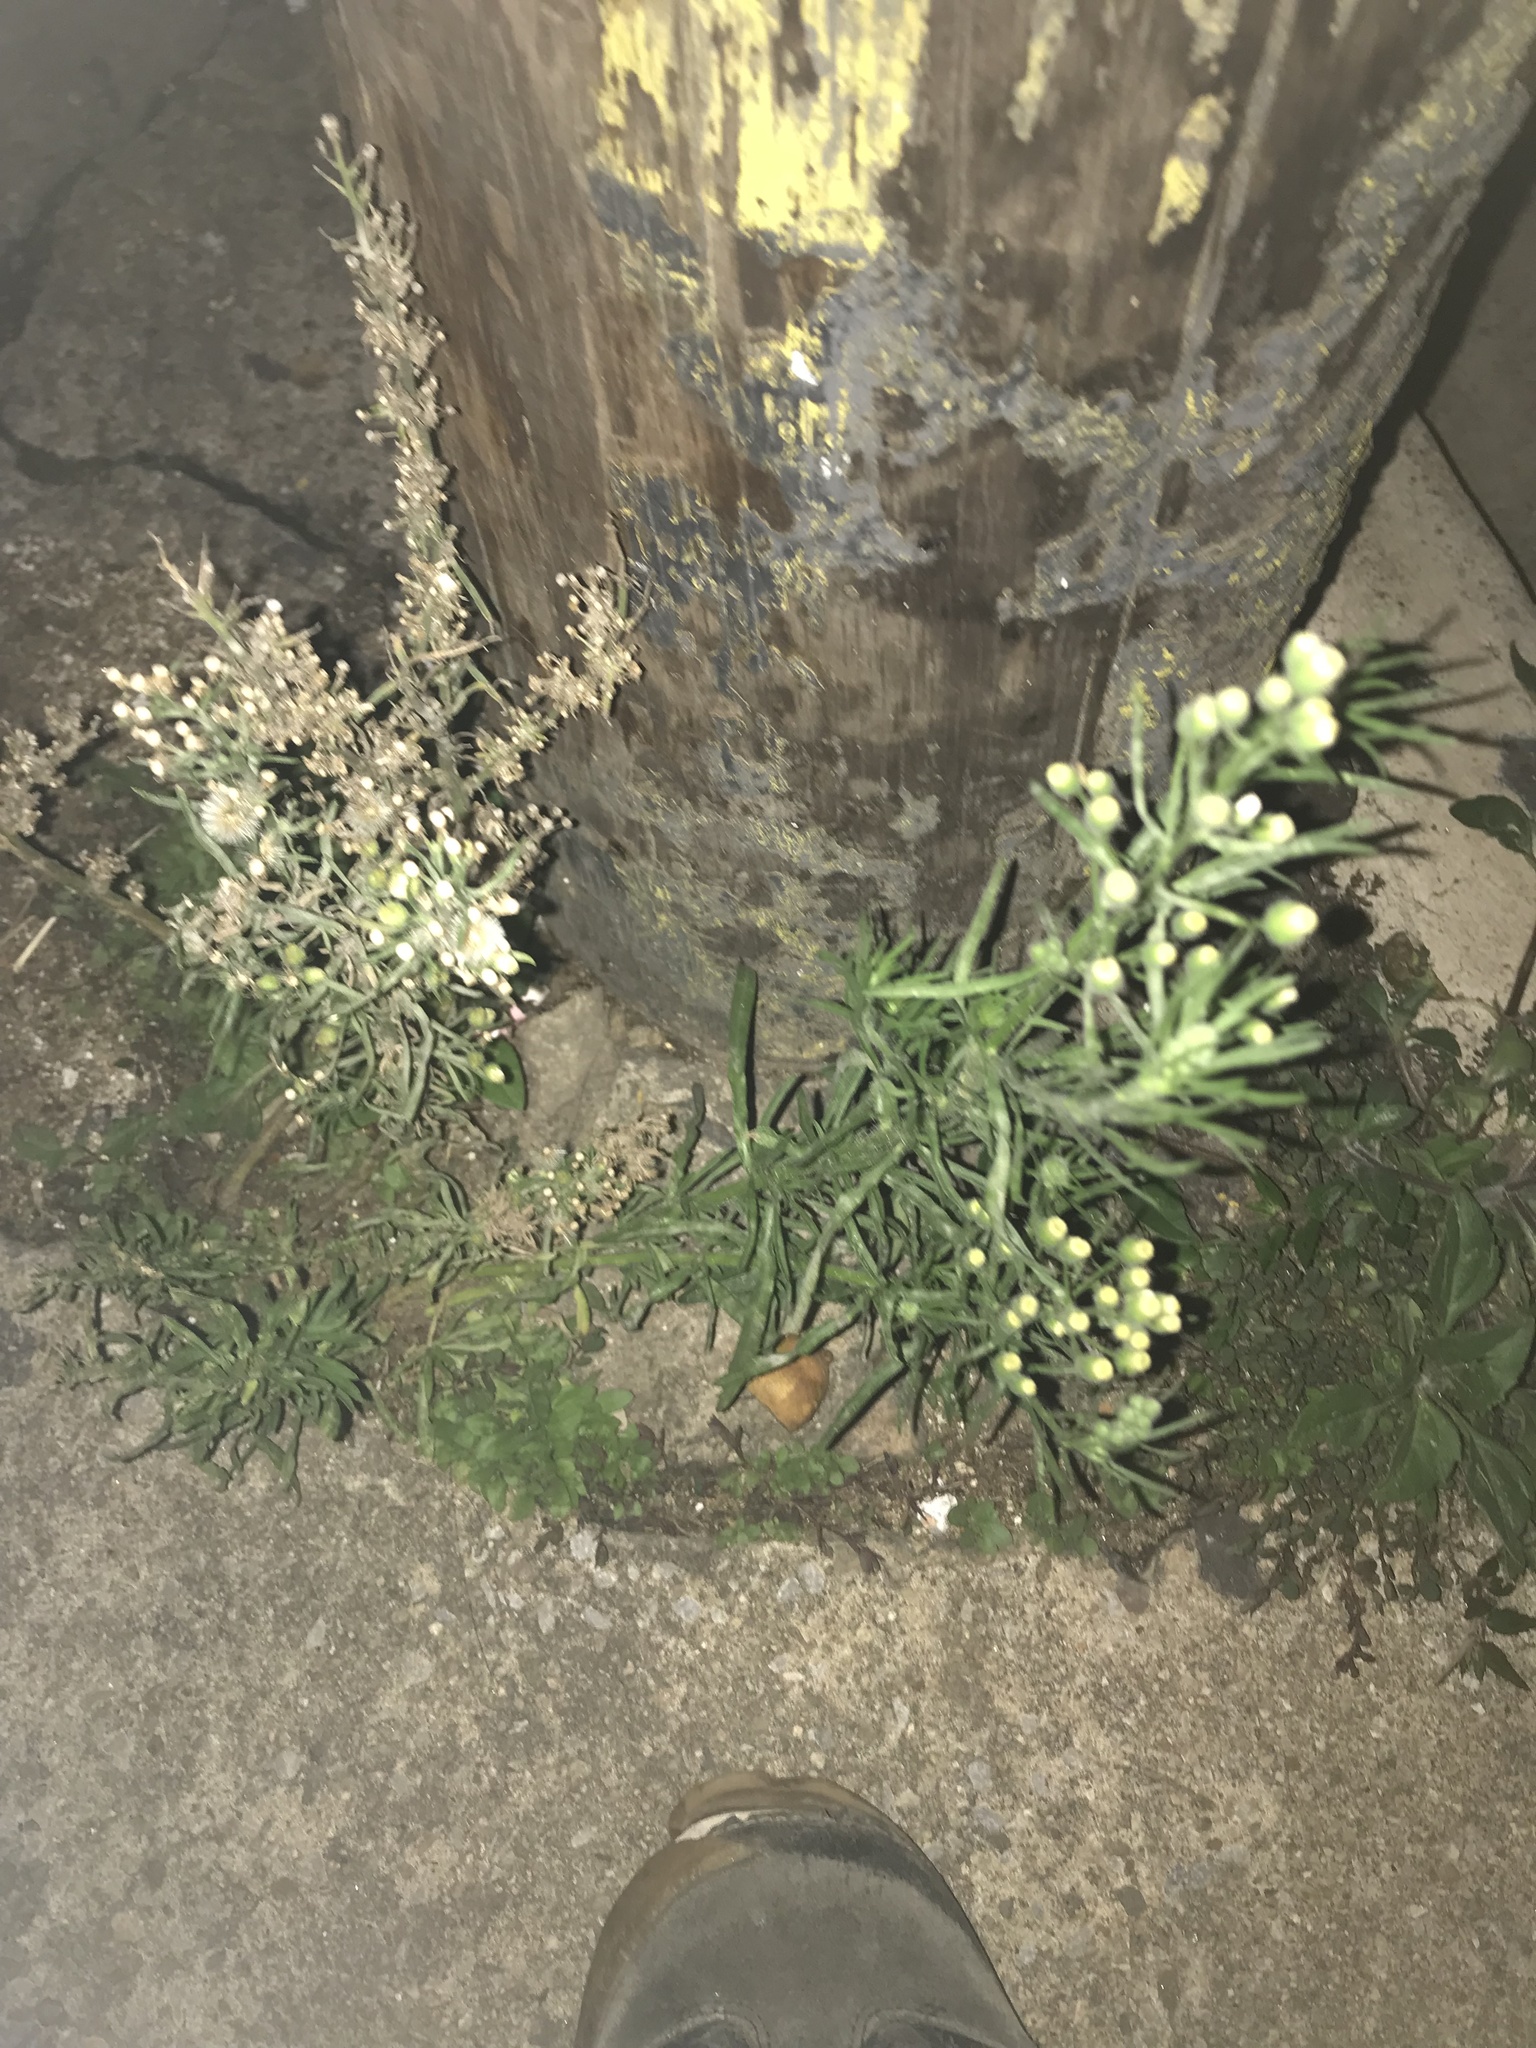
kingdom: Plantae
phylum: Tracheophyta
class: Magnoliopsida
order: Asterales
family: Asteraceae
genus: Erigeron
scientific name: Erigeron bonariensis
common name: Argentine fleabane
